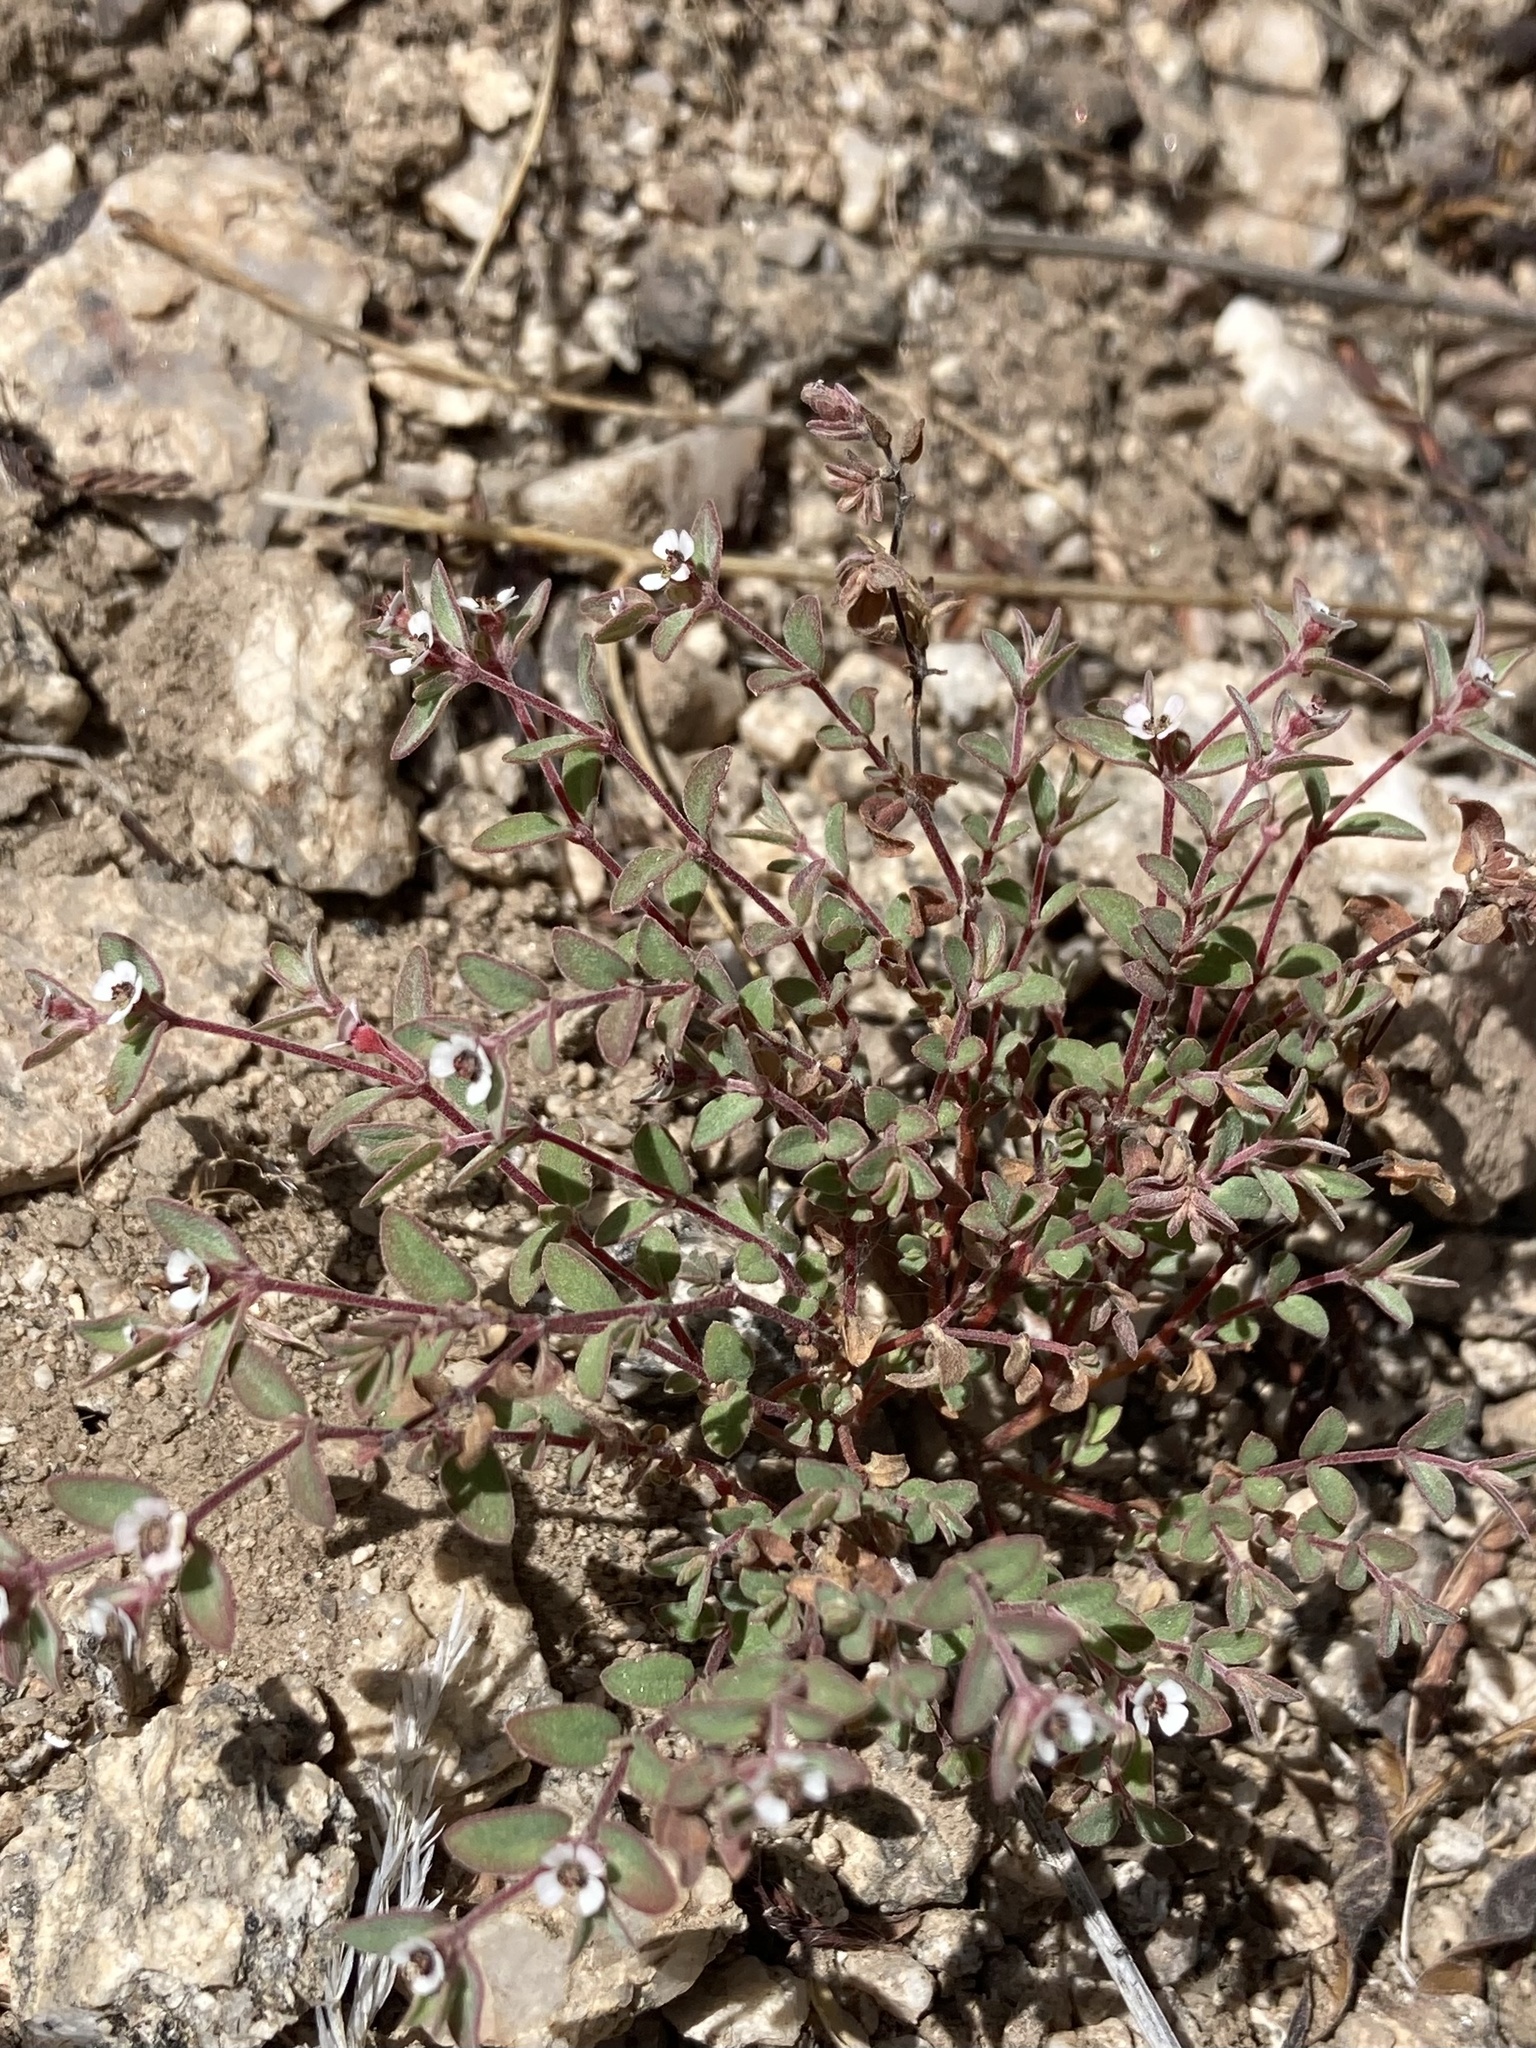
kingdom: Plantae
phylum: Tracheophyta
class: Magnoliopsida
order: Malpighiales
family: Euphorbiaceae
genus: Euphorbia
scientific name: Euphorbia melanadenia
